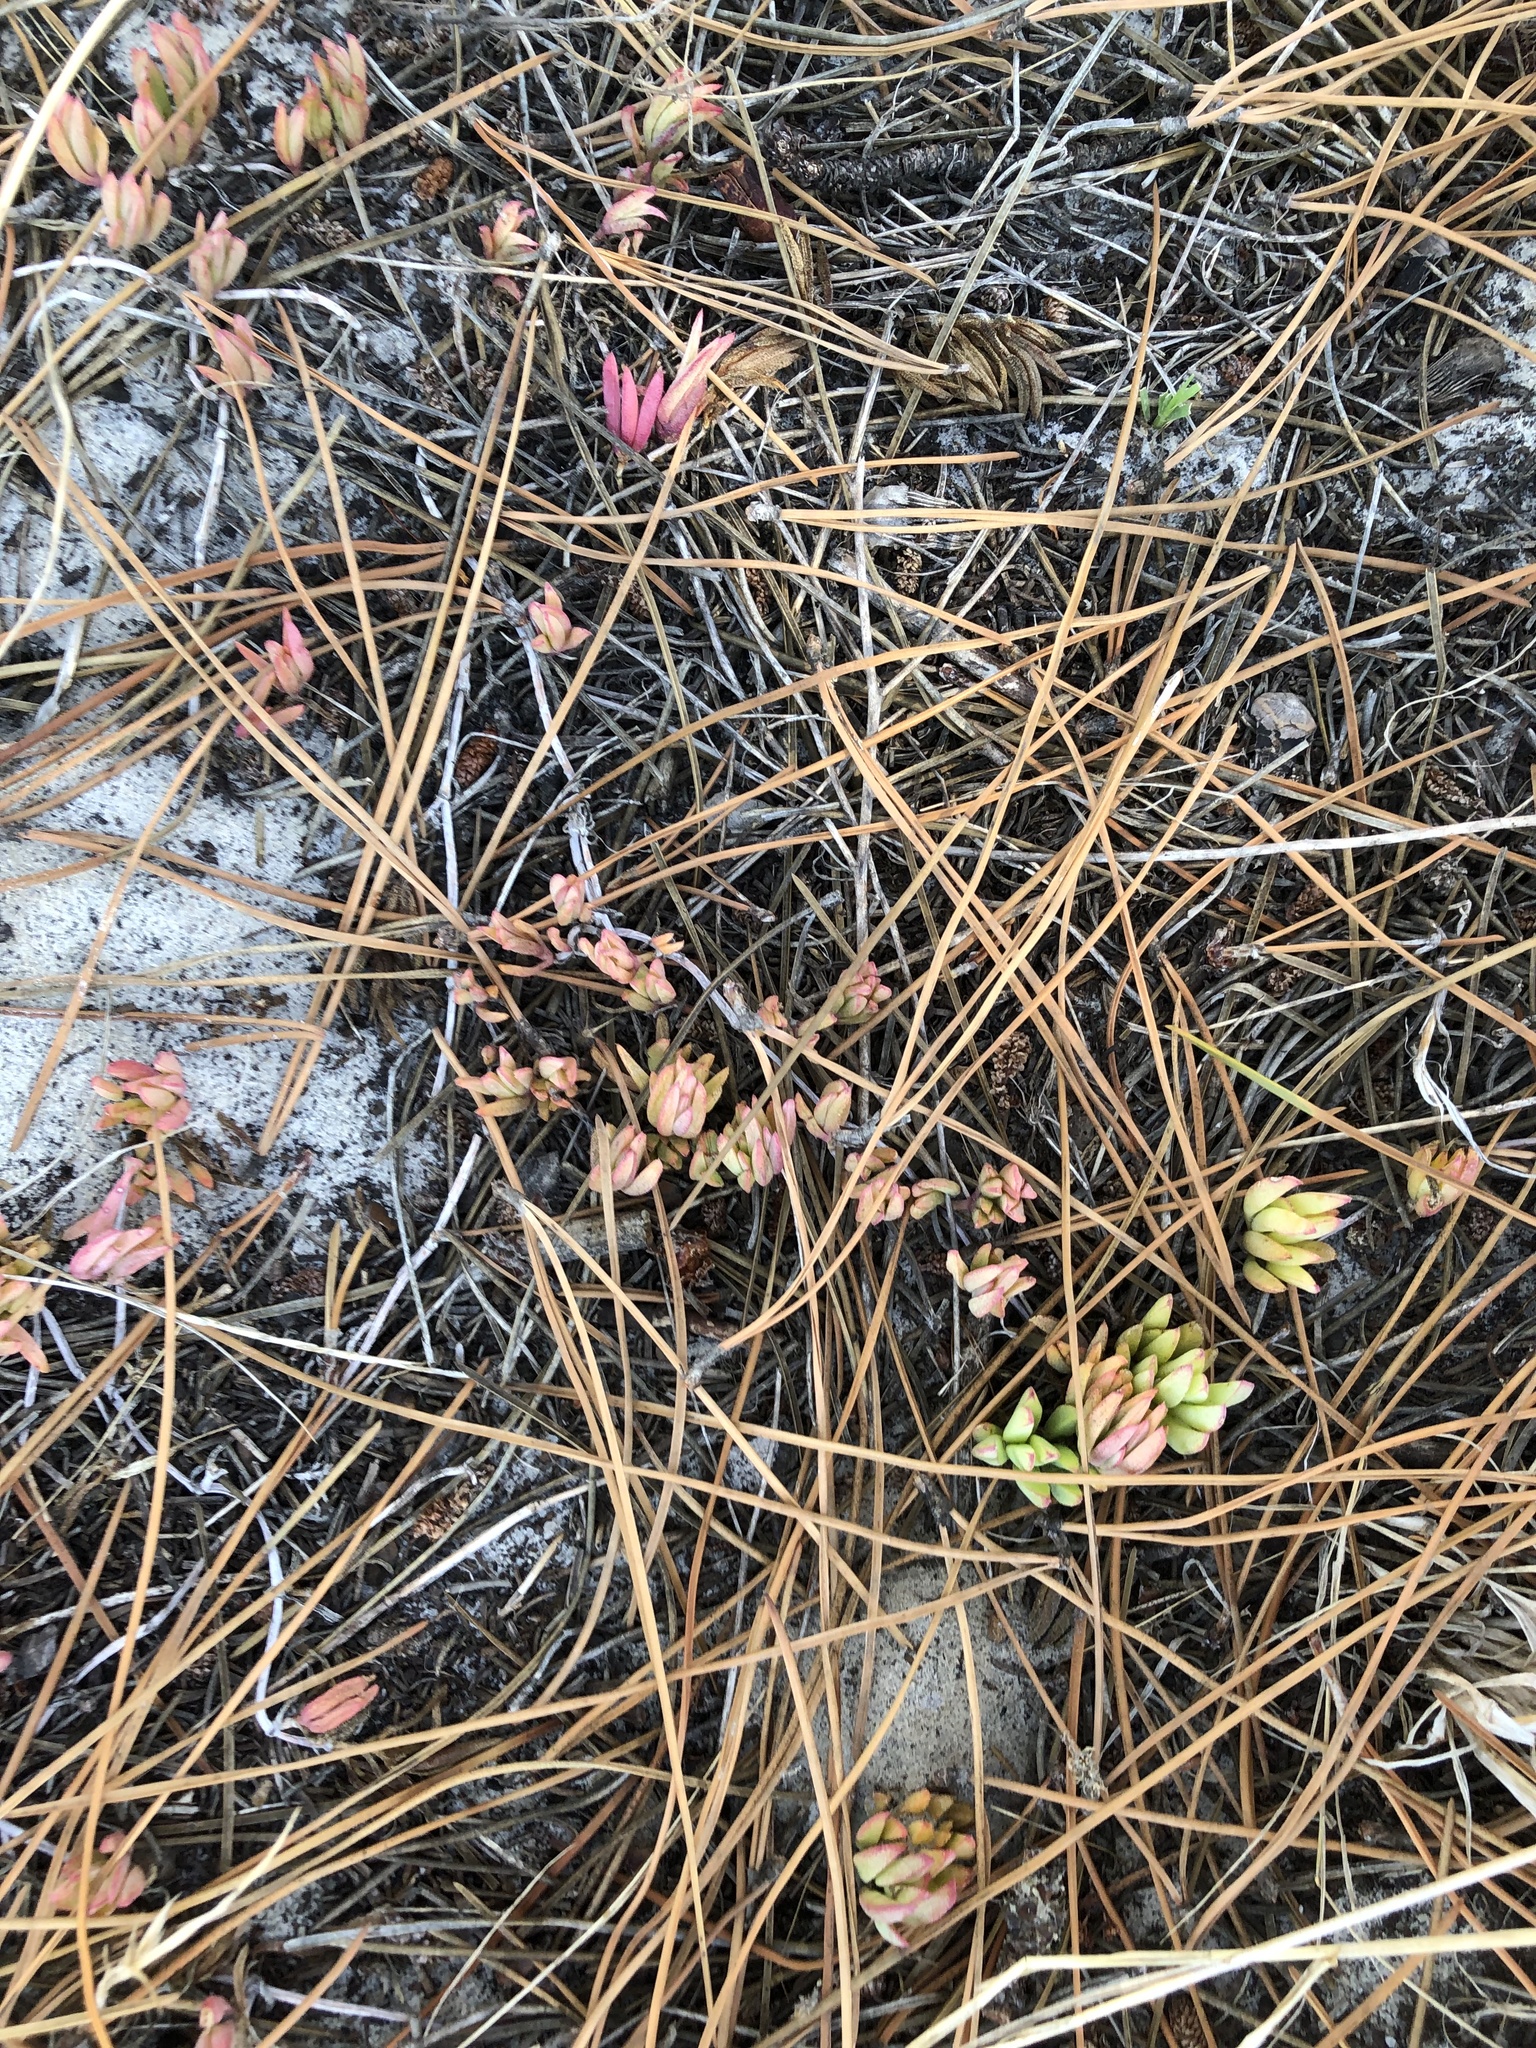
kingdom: Plantae
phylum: Tracheophyta
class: Magnoliopsida
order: Caryophyllales
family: Aizoaceae
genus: Lampranthus
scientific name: Lampranthus reptans
